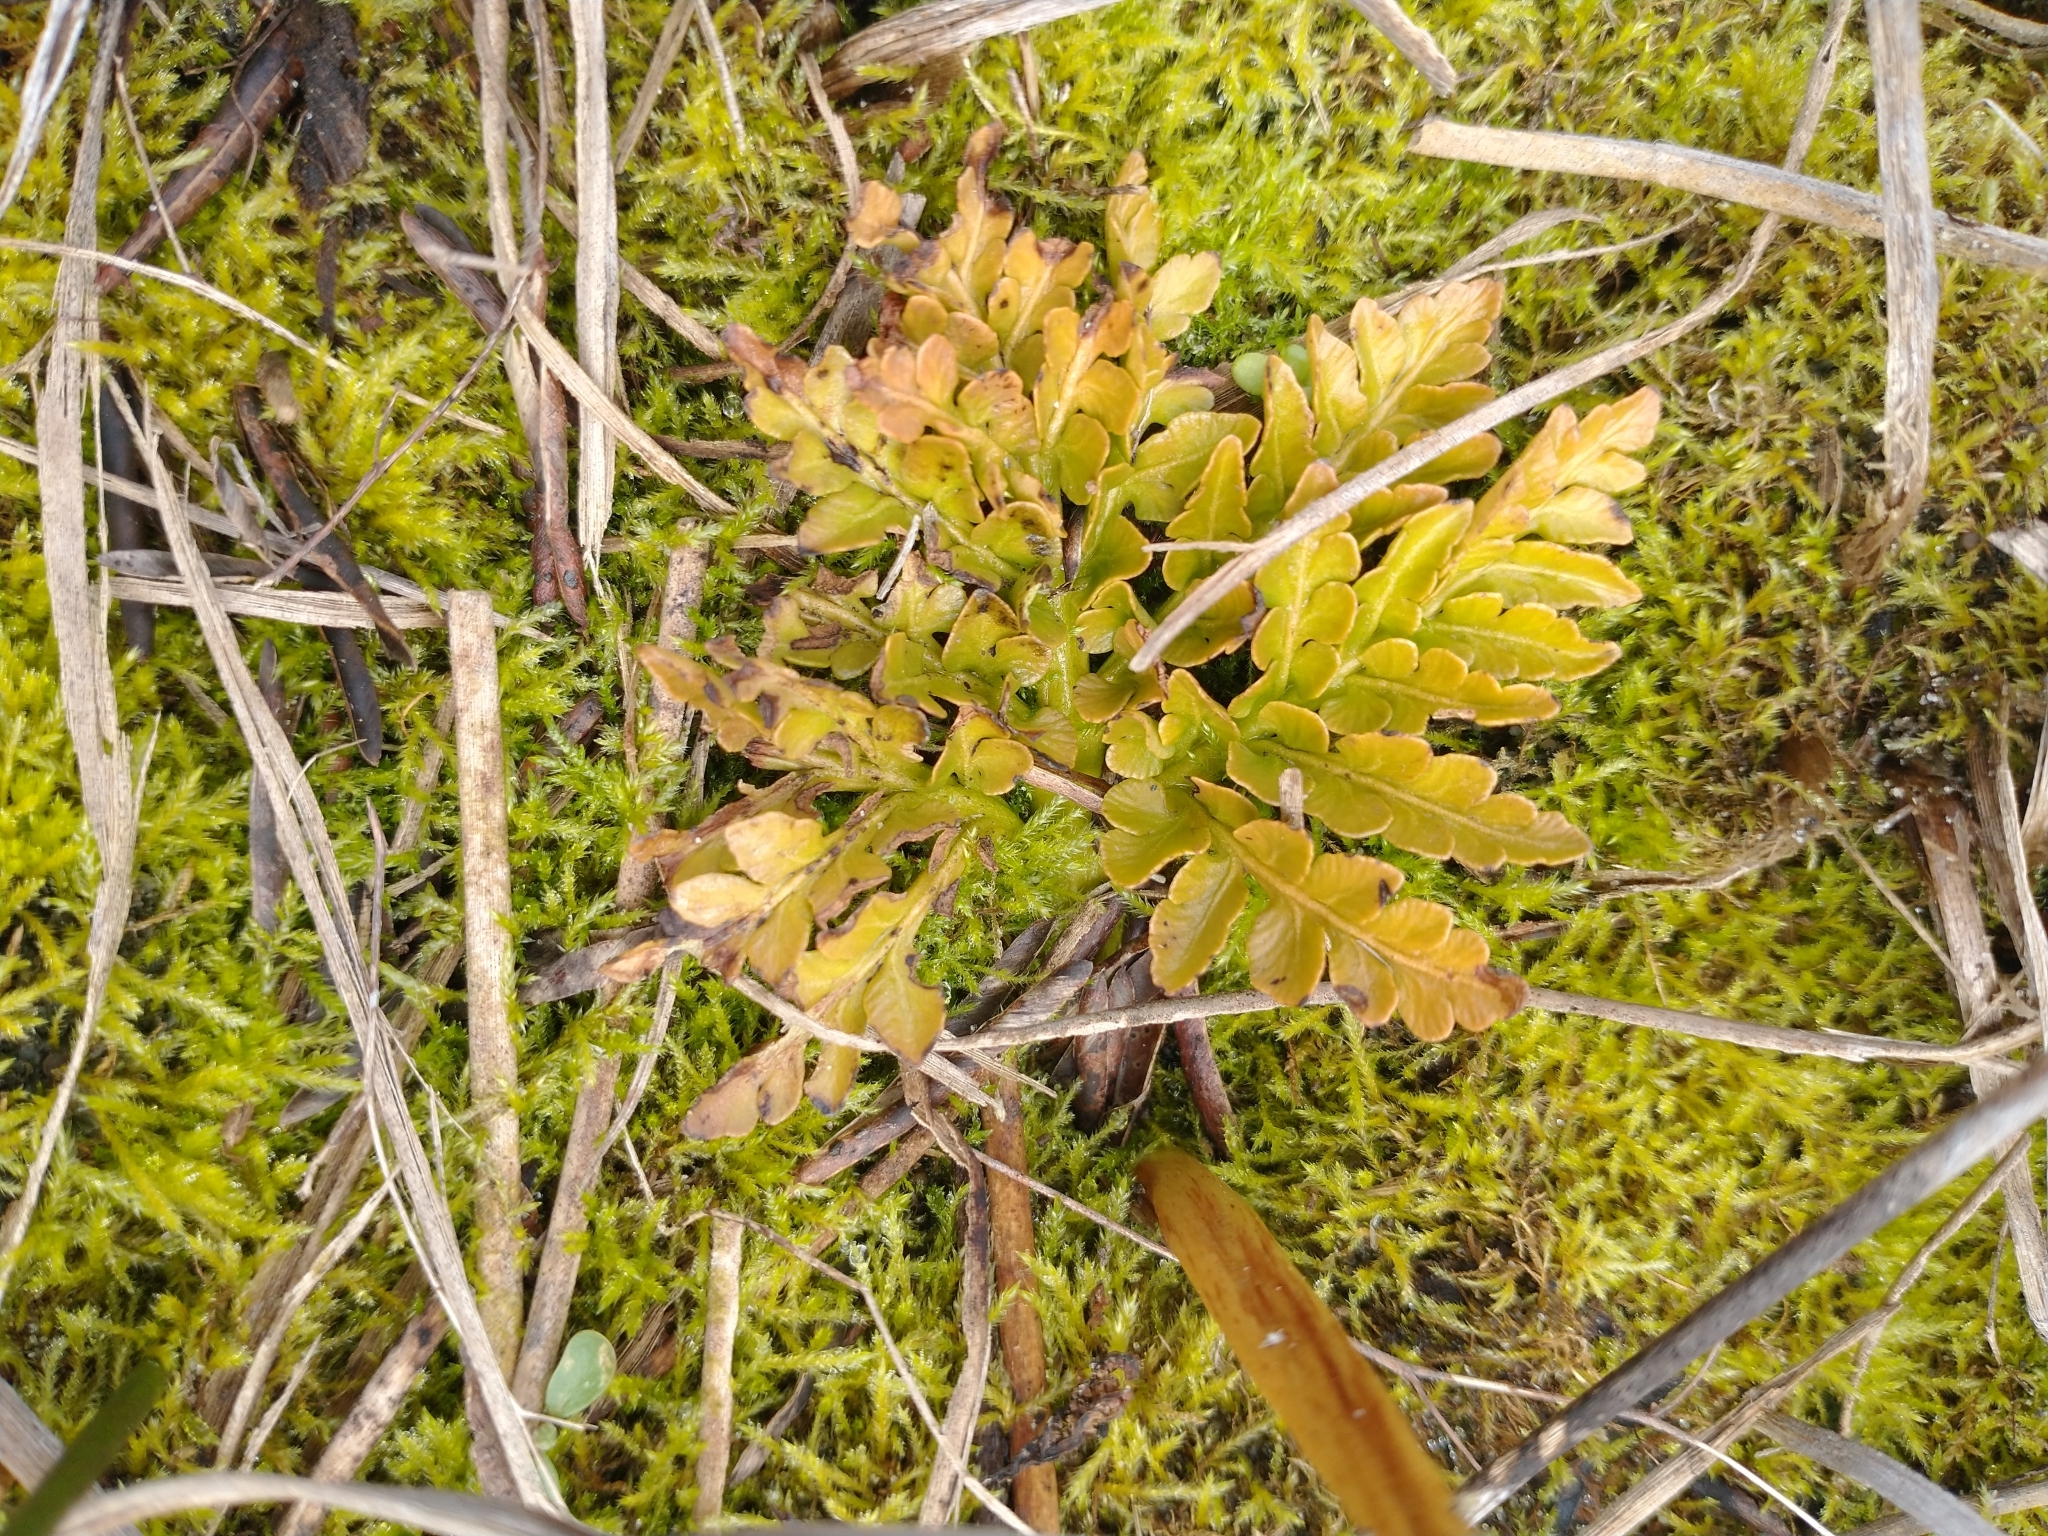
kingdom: Plantae
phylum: Tracheophyta
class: Polypodiopsida
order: Ophioglossales
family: Ophioglossaceae
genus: Sceptridium
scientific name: Sceptridium multifidum
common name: Leathery grape fern
